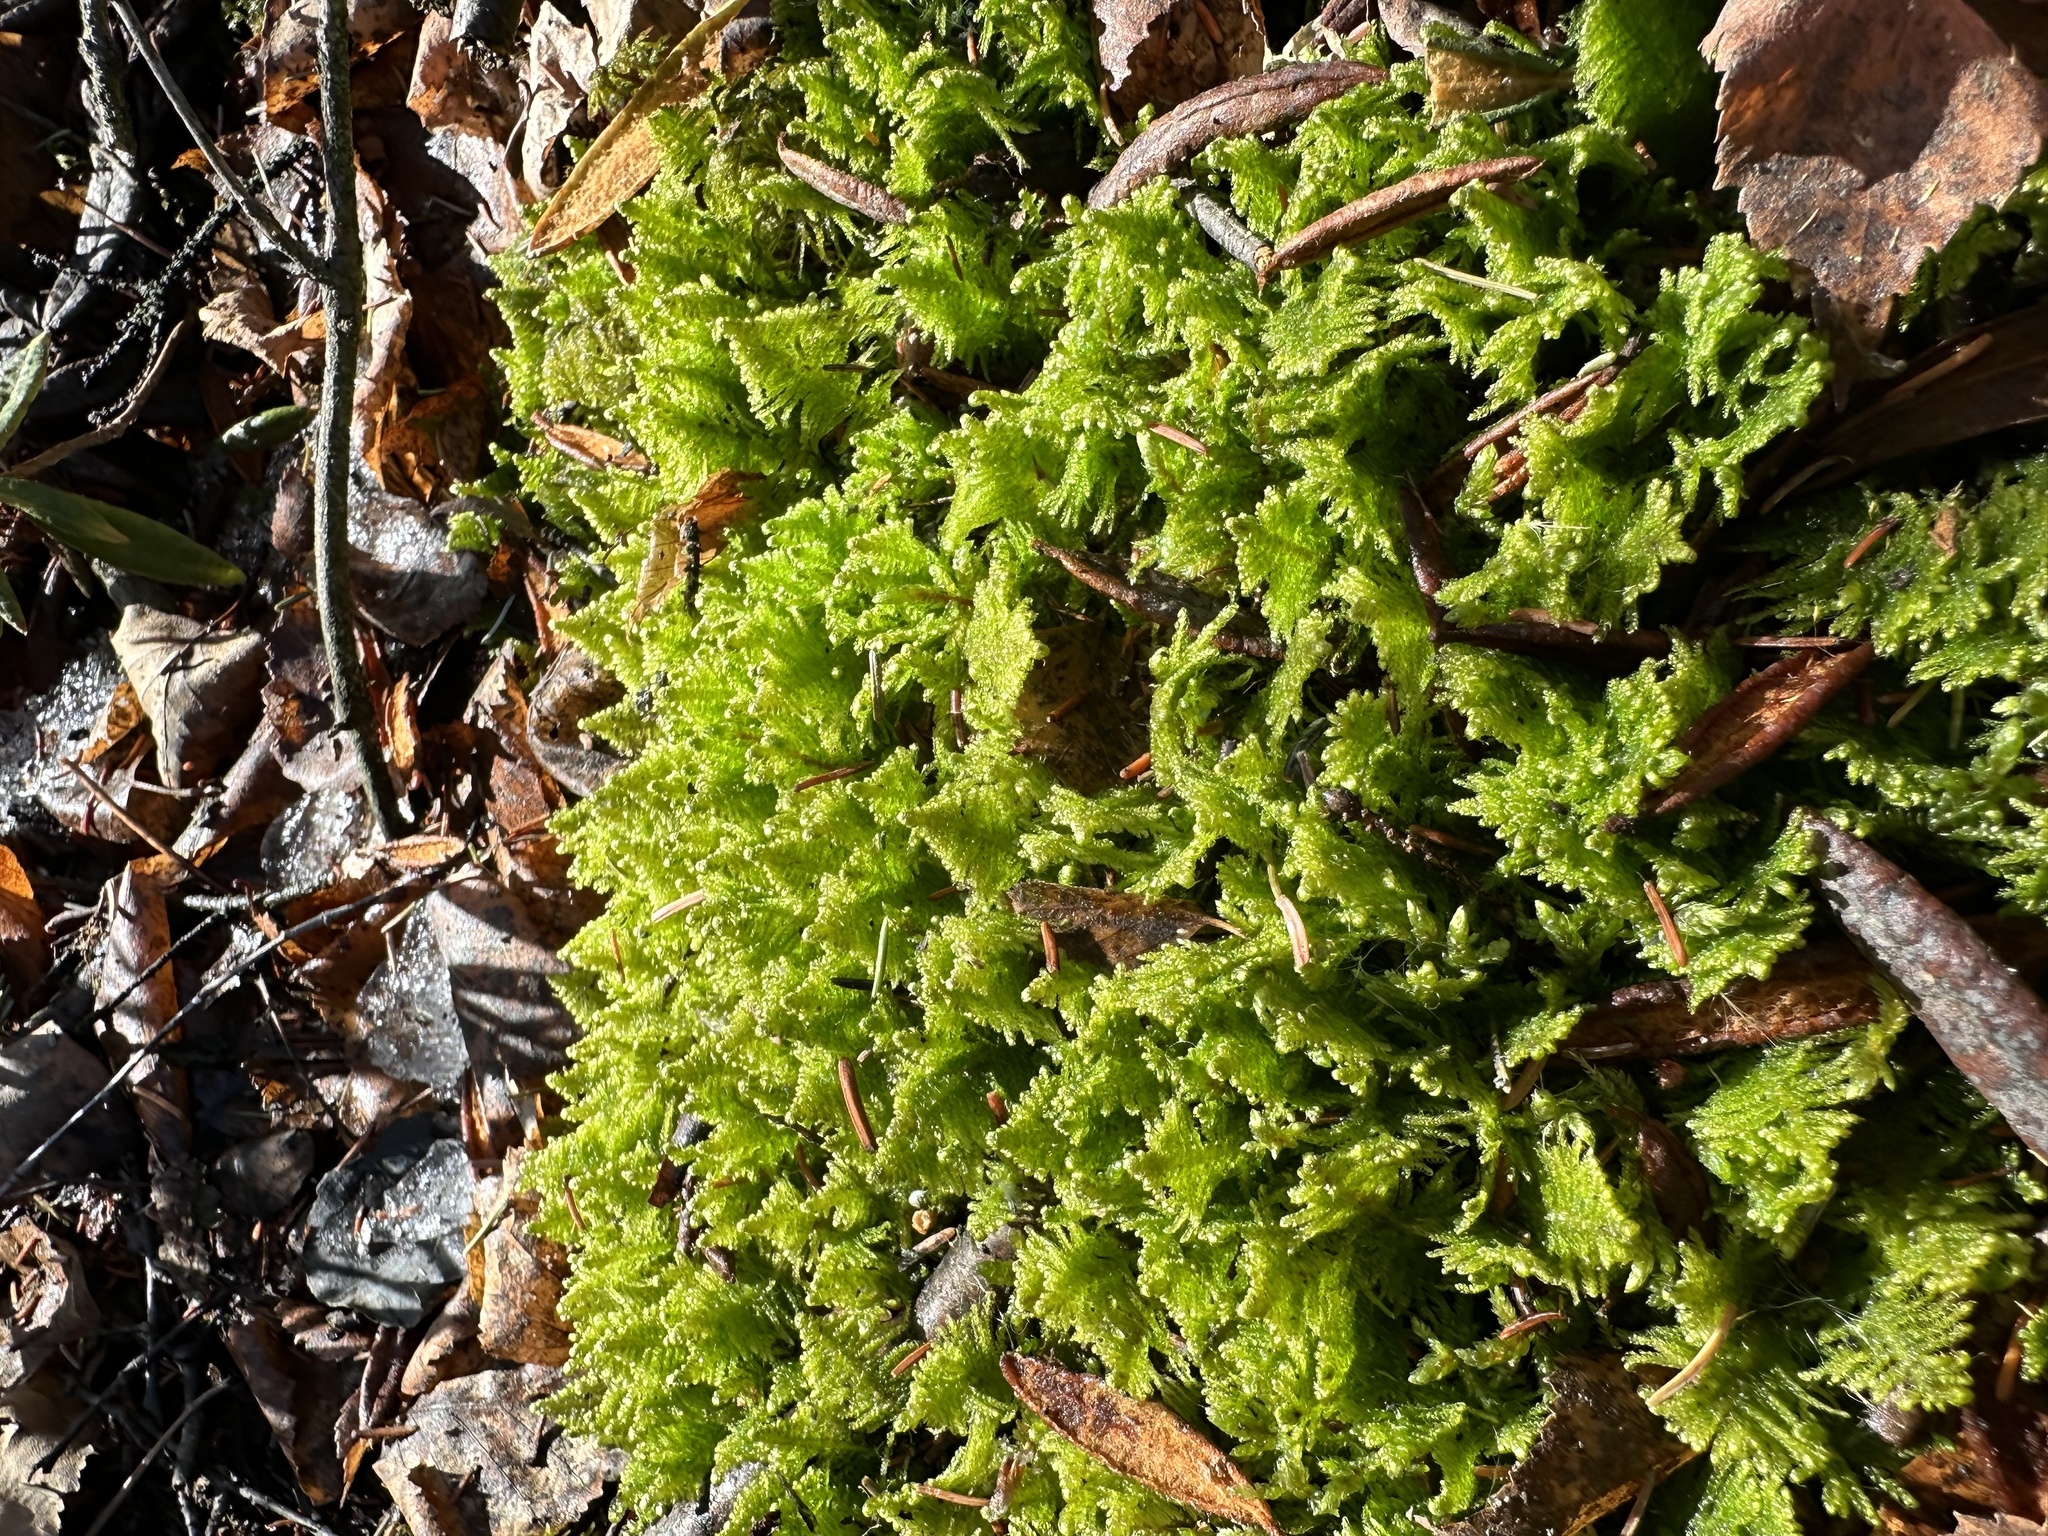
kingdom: Plantae
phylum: Bryophyta
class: Bryopsida
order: Hypnales
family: Pylaisiaceae
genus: Ptilium
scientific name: Ptilium crista-castrensis
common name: Knight's plume moss
